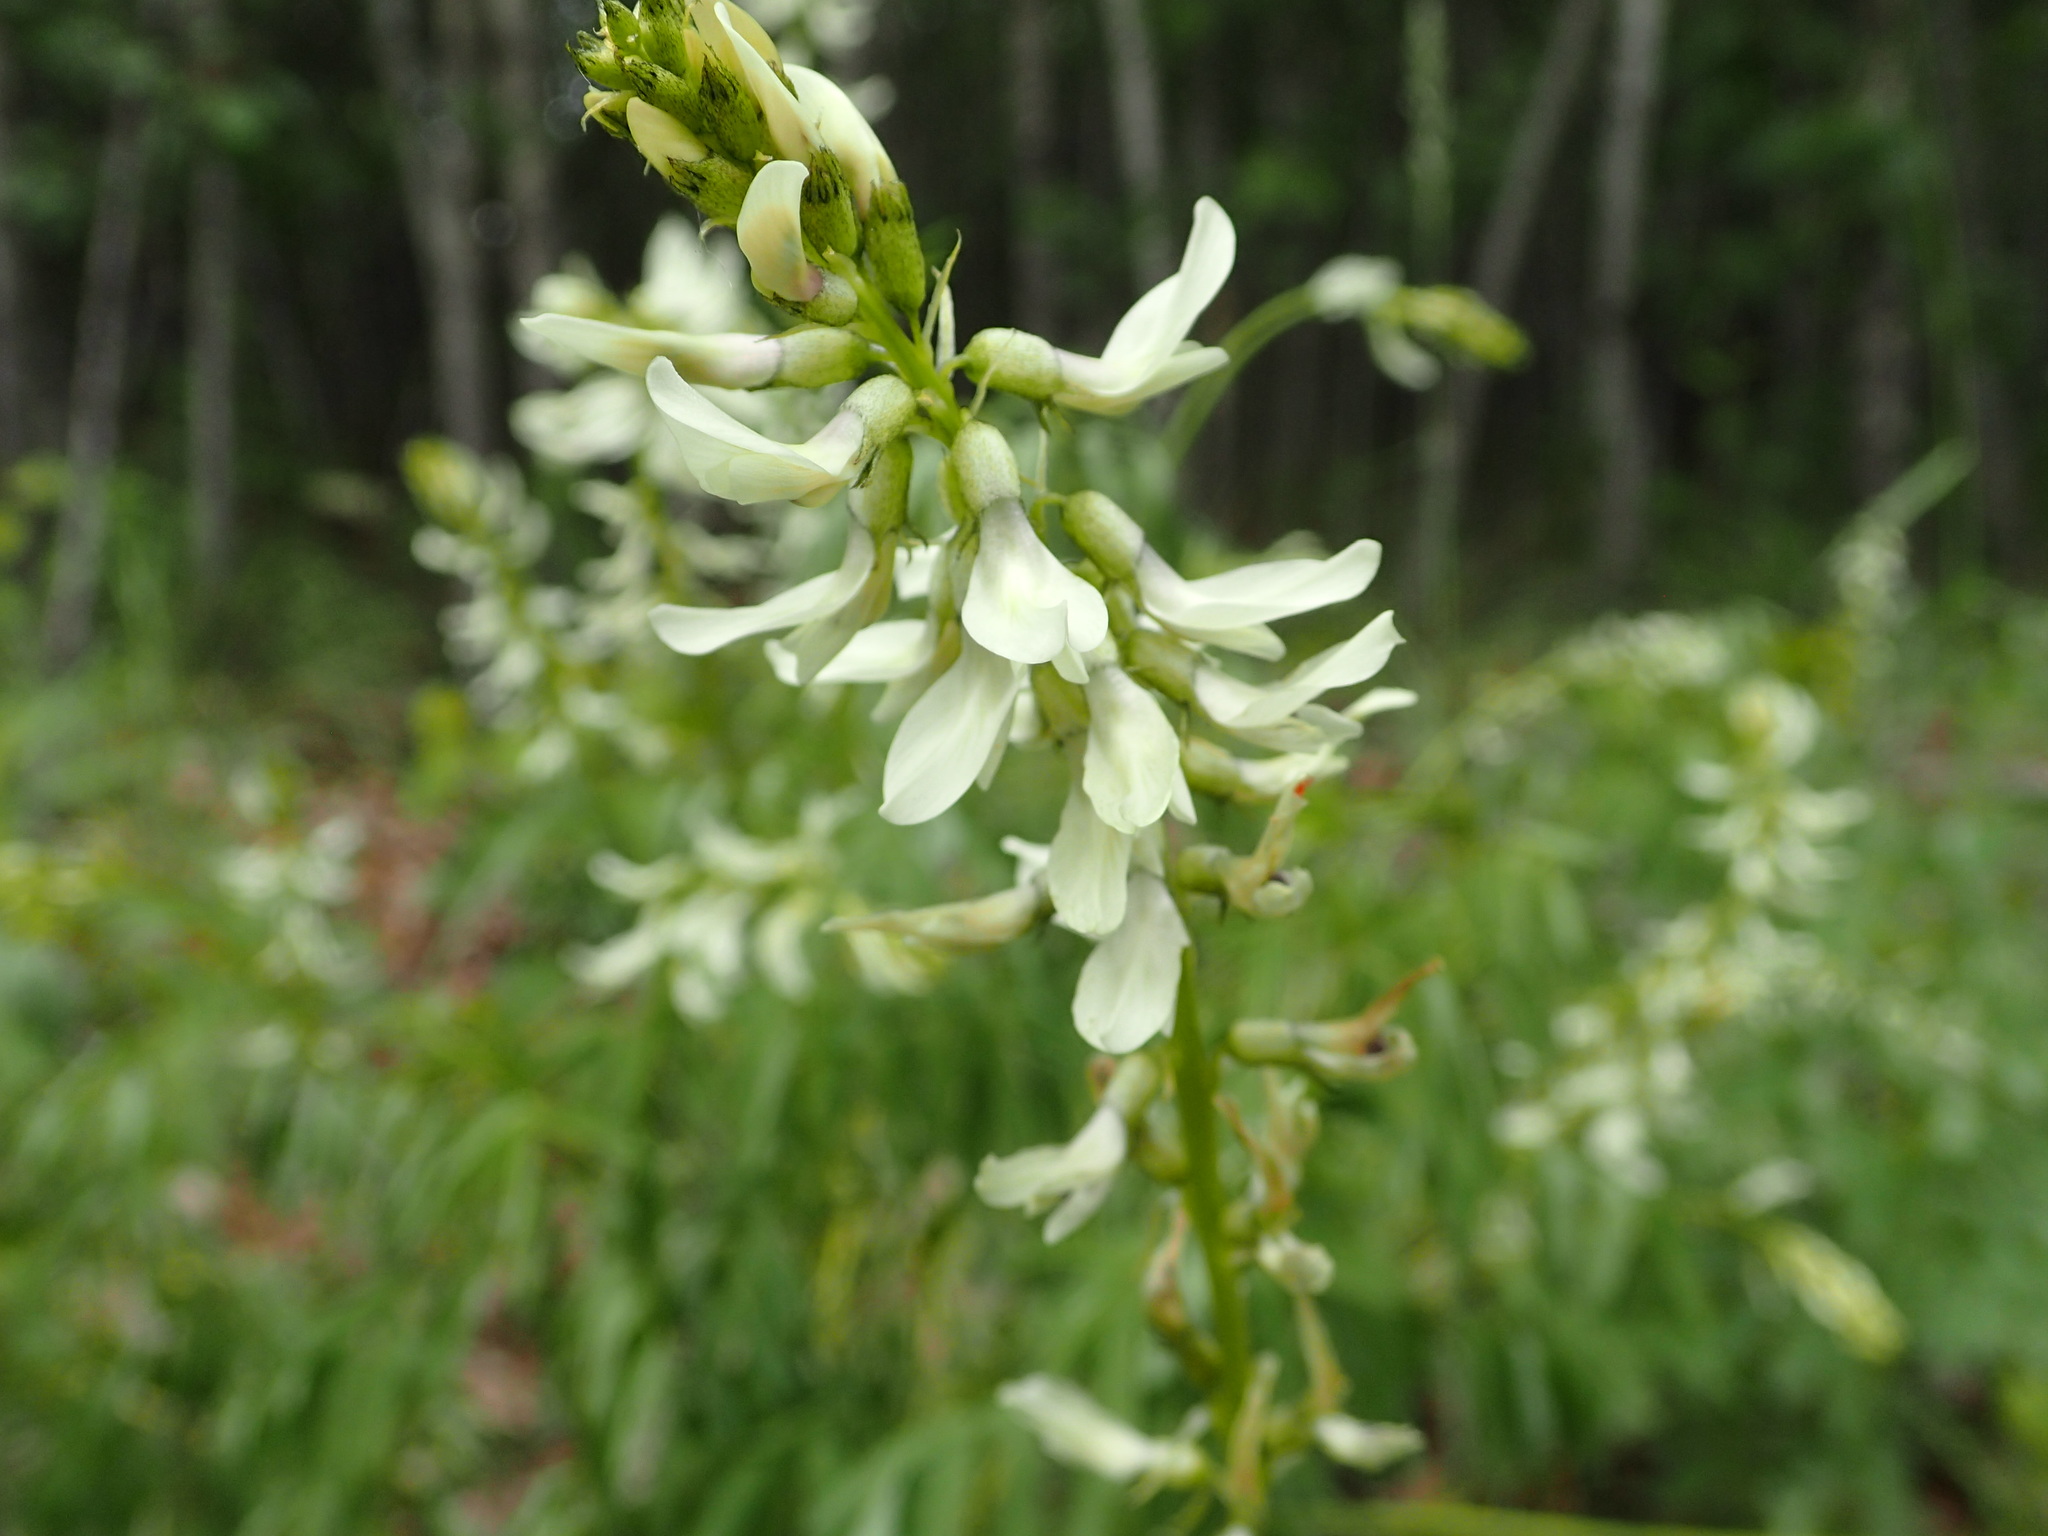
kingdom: Plantae
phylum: Tracheophyta
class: Magnoliopsida
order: Fabales
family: Fabaceae
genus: Astragalus
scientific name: Astragalus williamsii
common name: Williams' milkvetch
